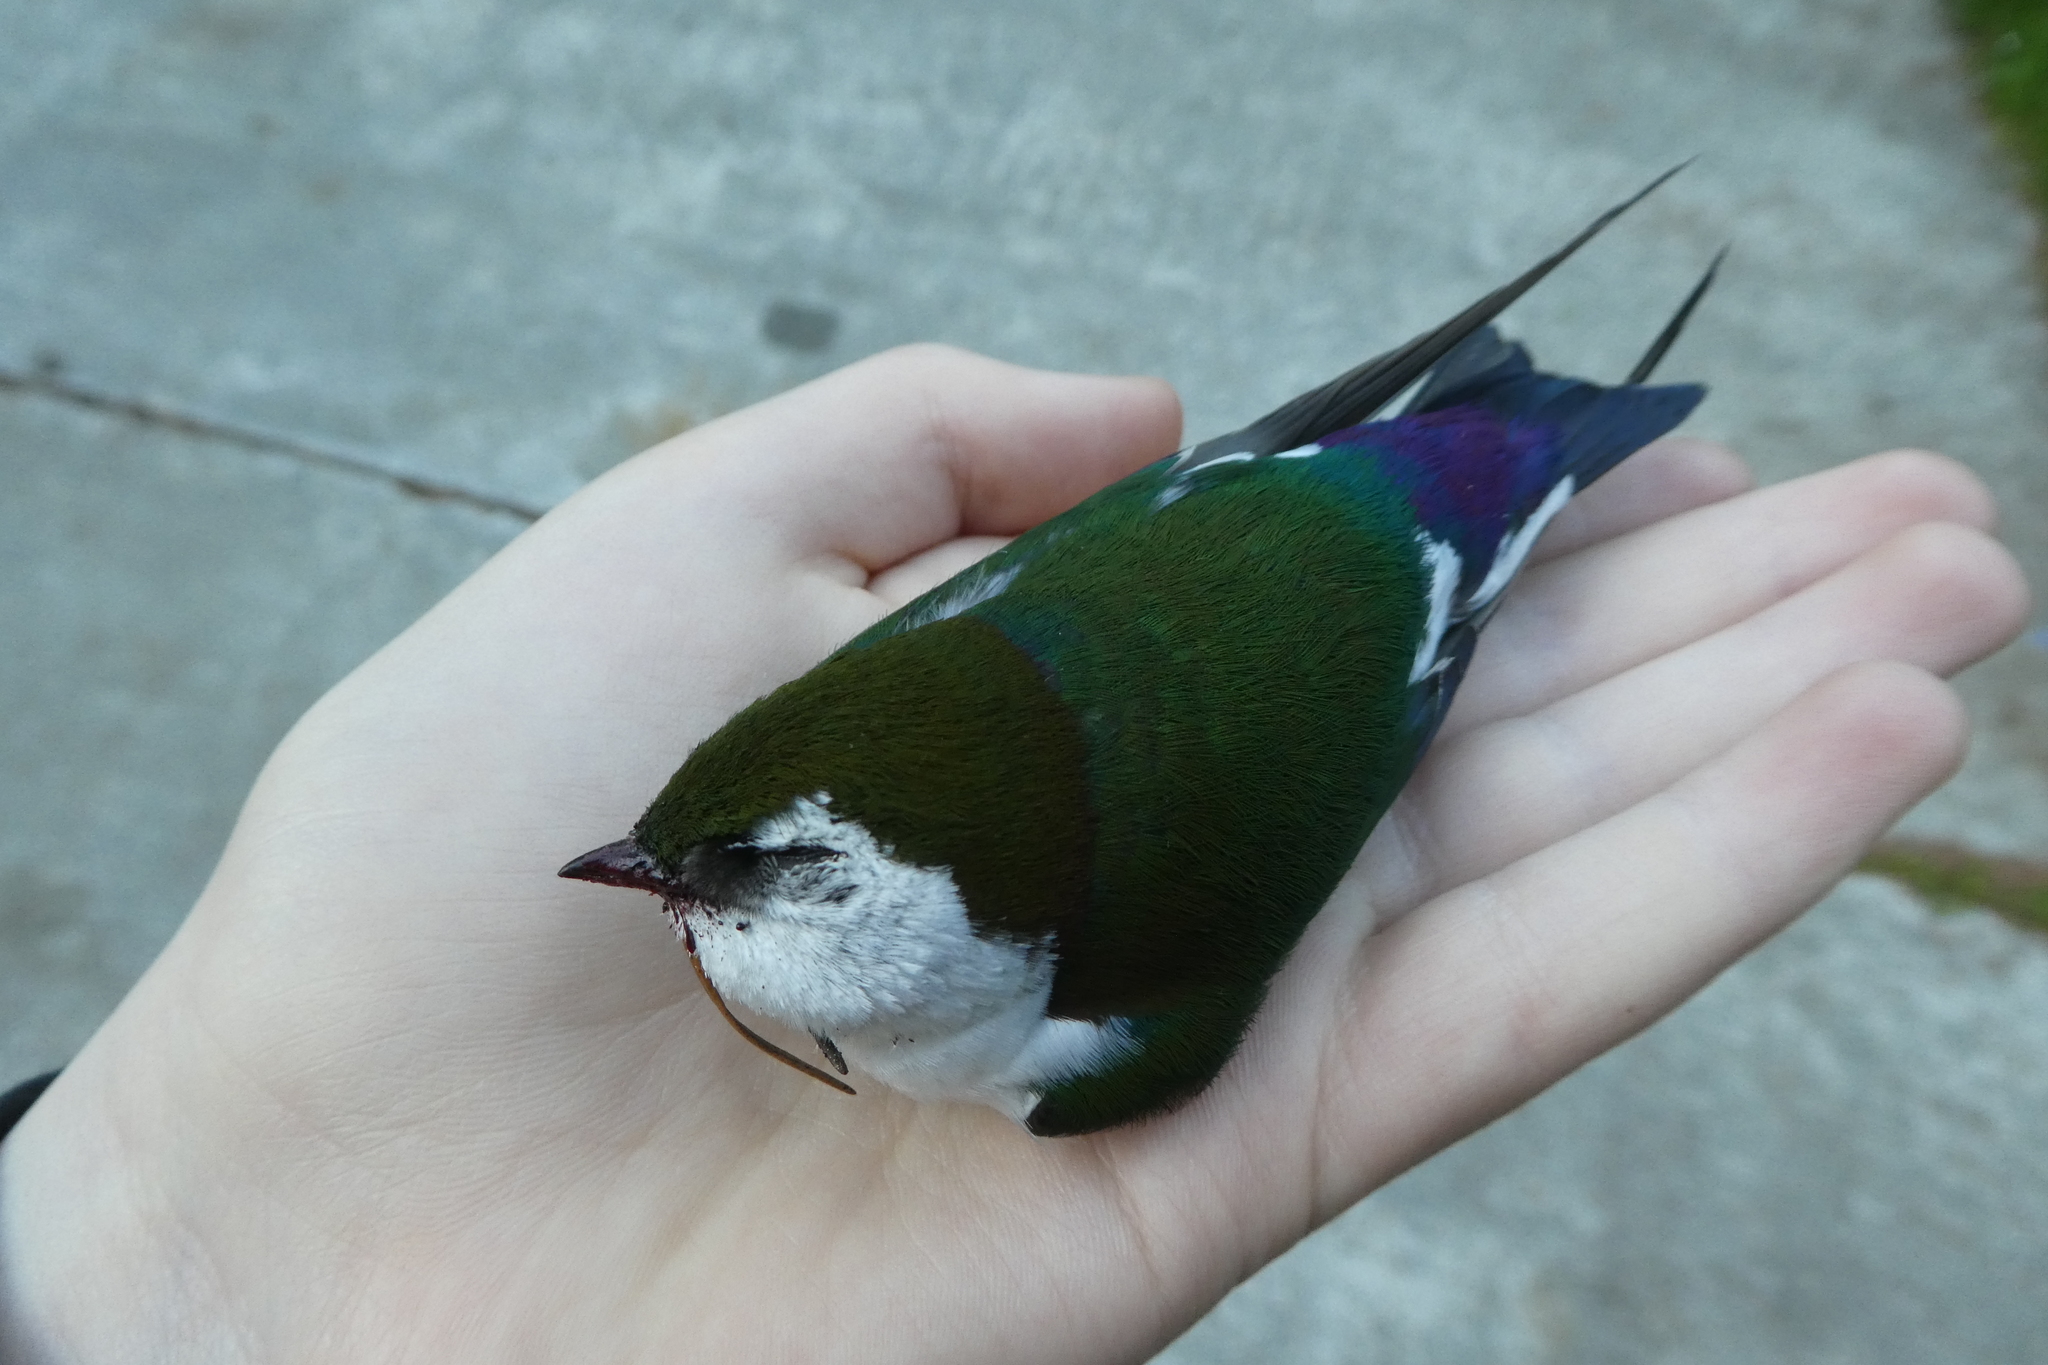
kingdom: Animalia
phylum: Chordata
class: Aves
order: Passeriformes
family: Hirundinidae
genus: Tachycineta
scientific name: Tachycineta thalassina
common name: Violet-green swallow
